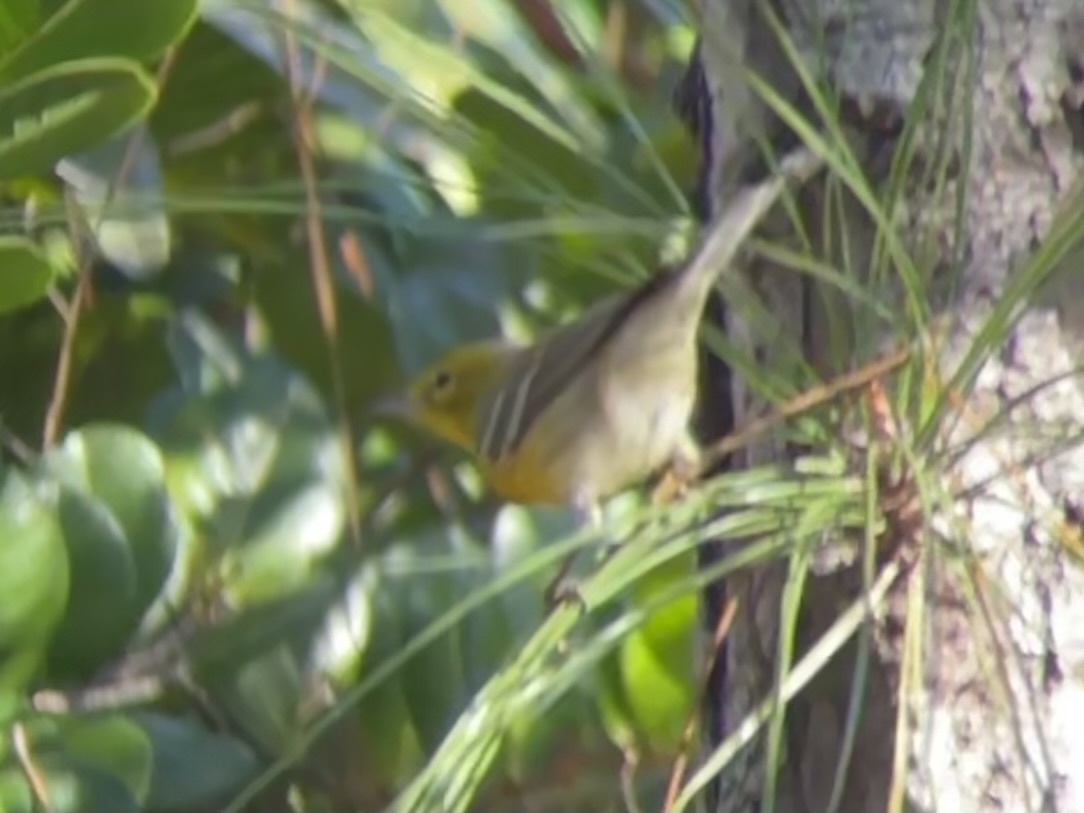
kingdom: Animalia
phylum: Chordata
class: Aves
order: Passeriformes
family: Parulidae
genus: Setophaga
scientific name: Setophaga pinus
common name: Pine warbler
